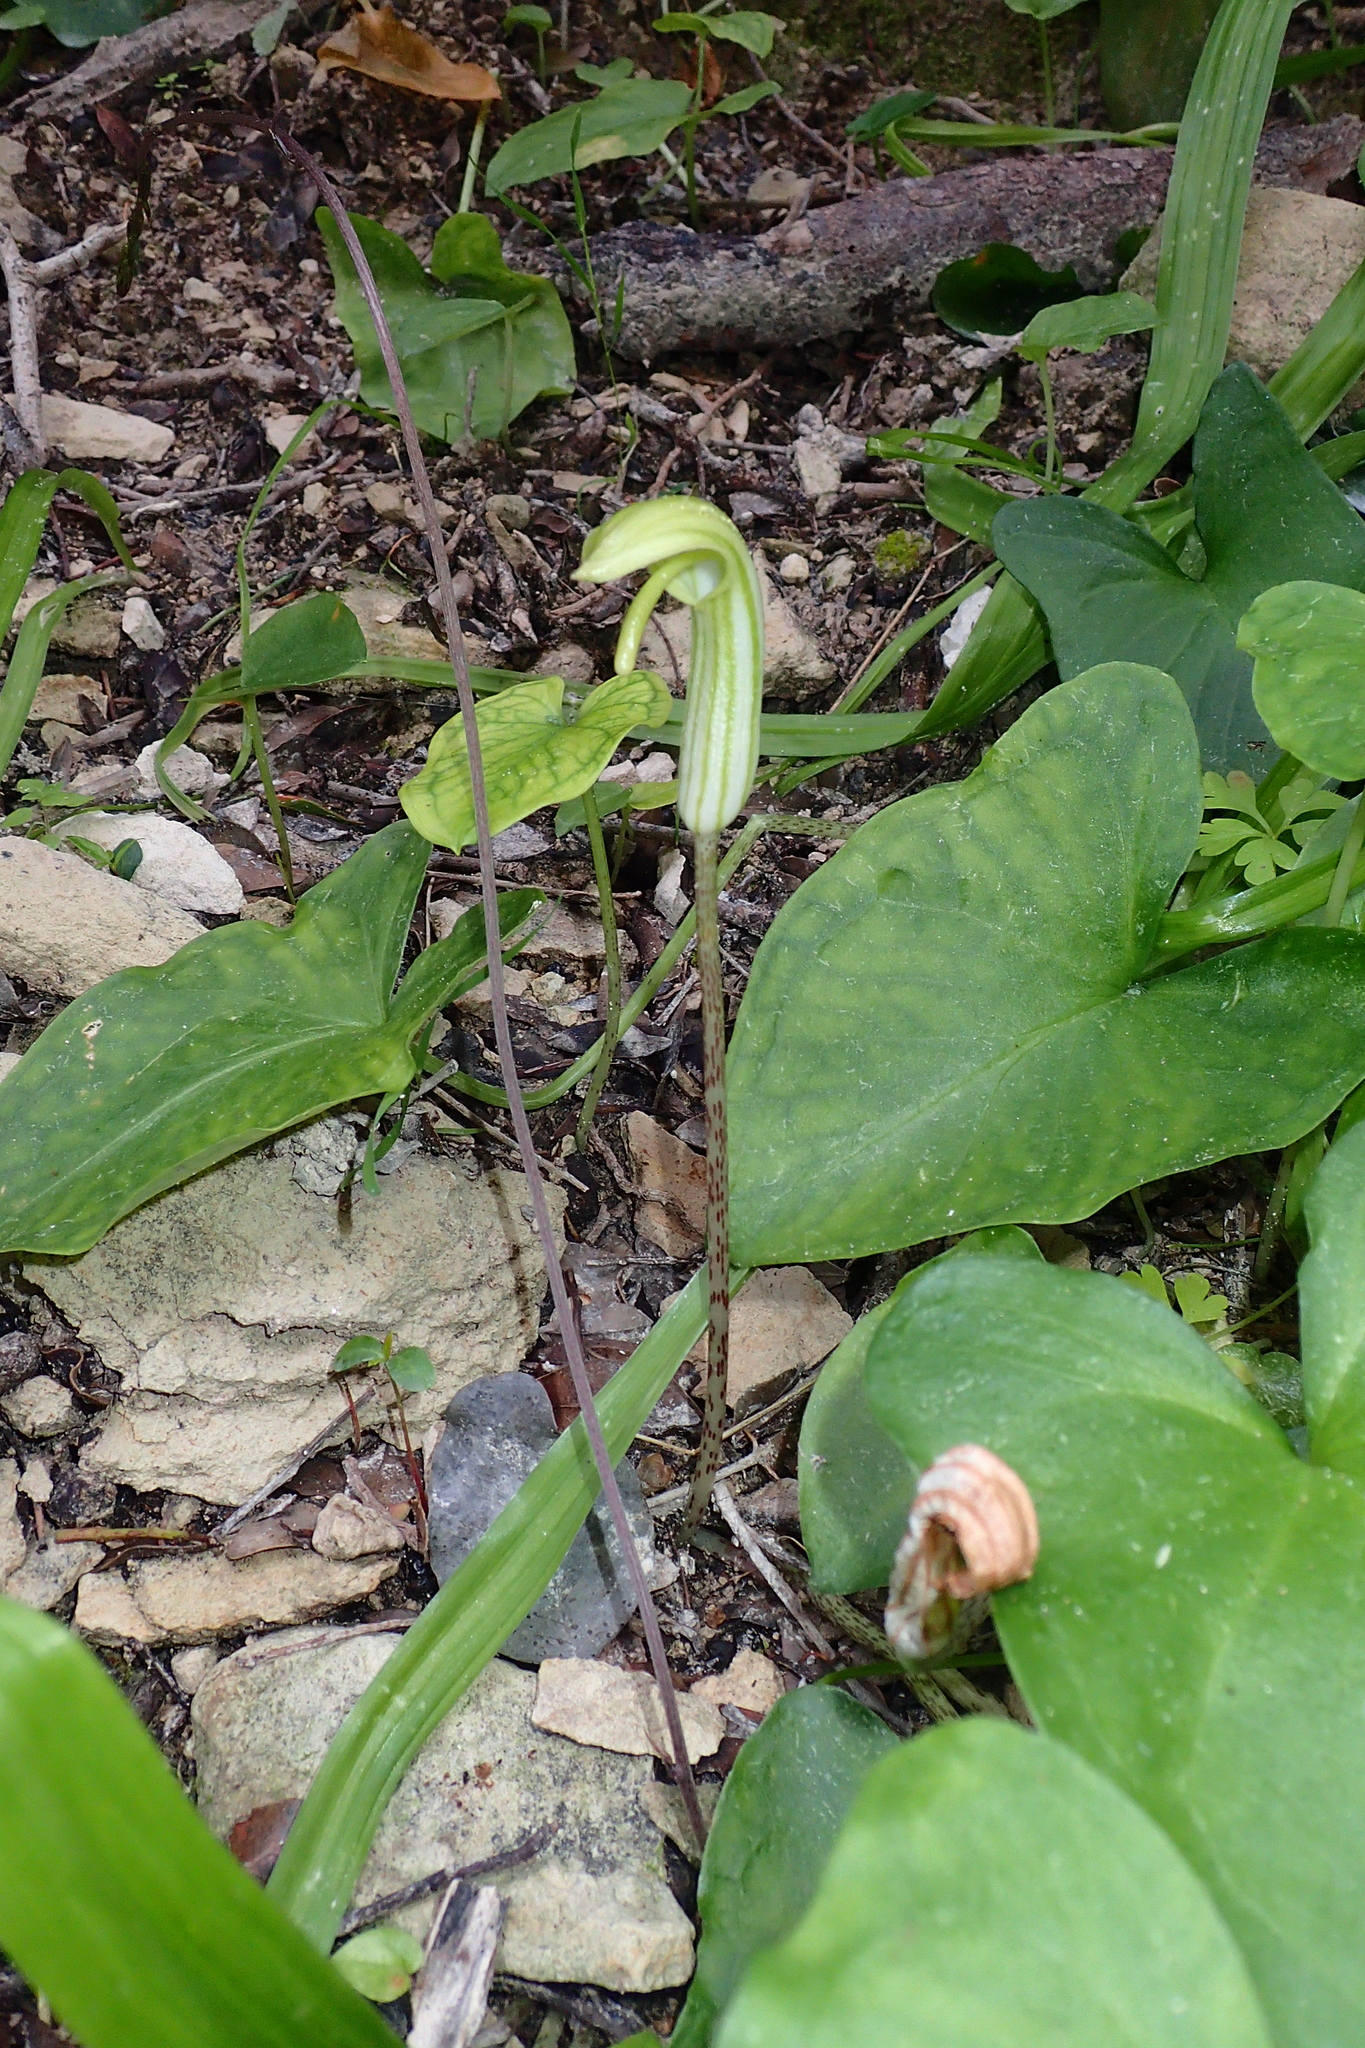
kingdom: Plantae
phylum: Tracheophyta
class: Liliopsida
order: Alismatales
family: Araceae
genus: Arisarum
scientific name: Arisarum vulgare
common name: Common arisarum
